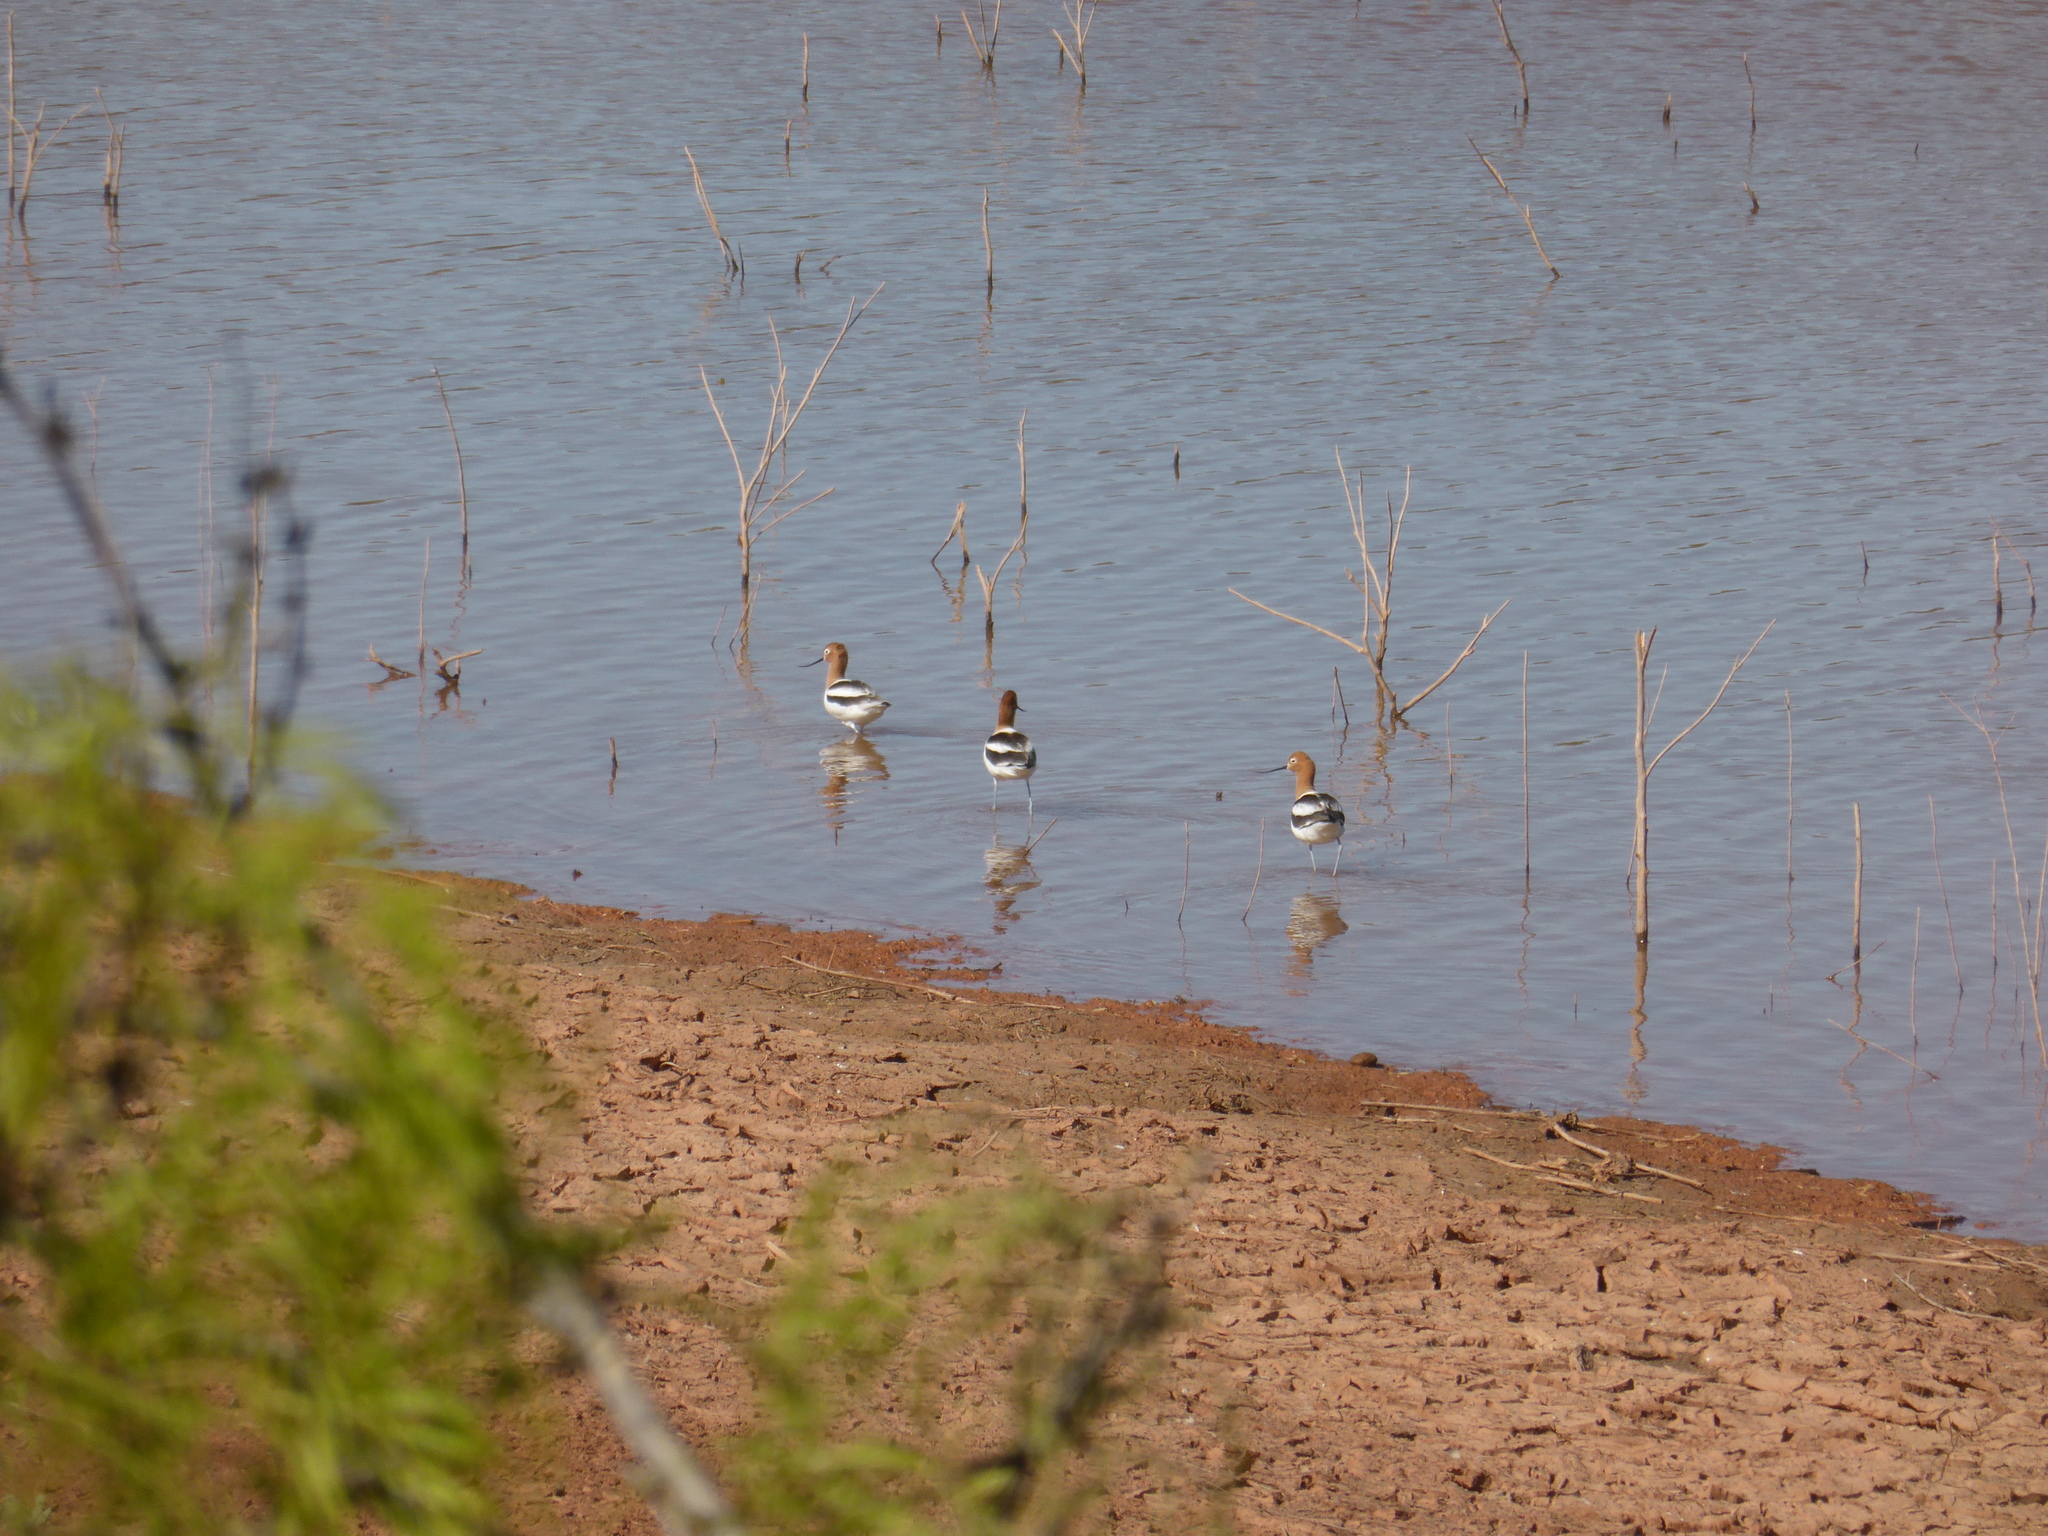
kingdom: Animalia
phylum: Chordata
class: Aves
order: Charadriiformes
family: Recurvirostridae
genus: Recurvirostra
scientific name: Recurvirostra americana
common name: American avocet
